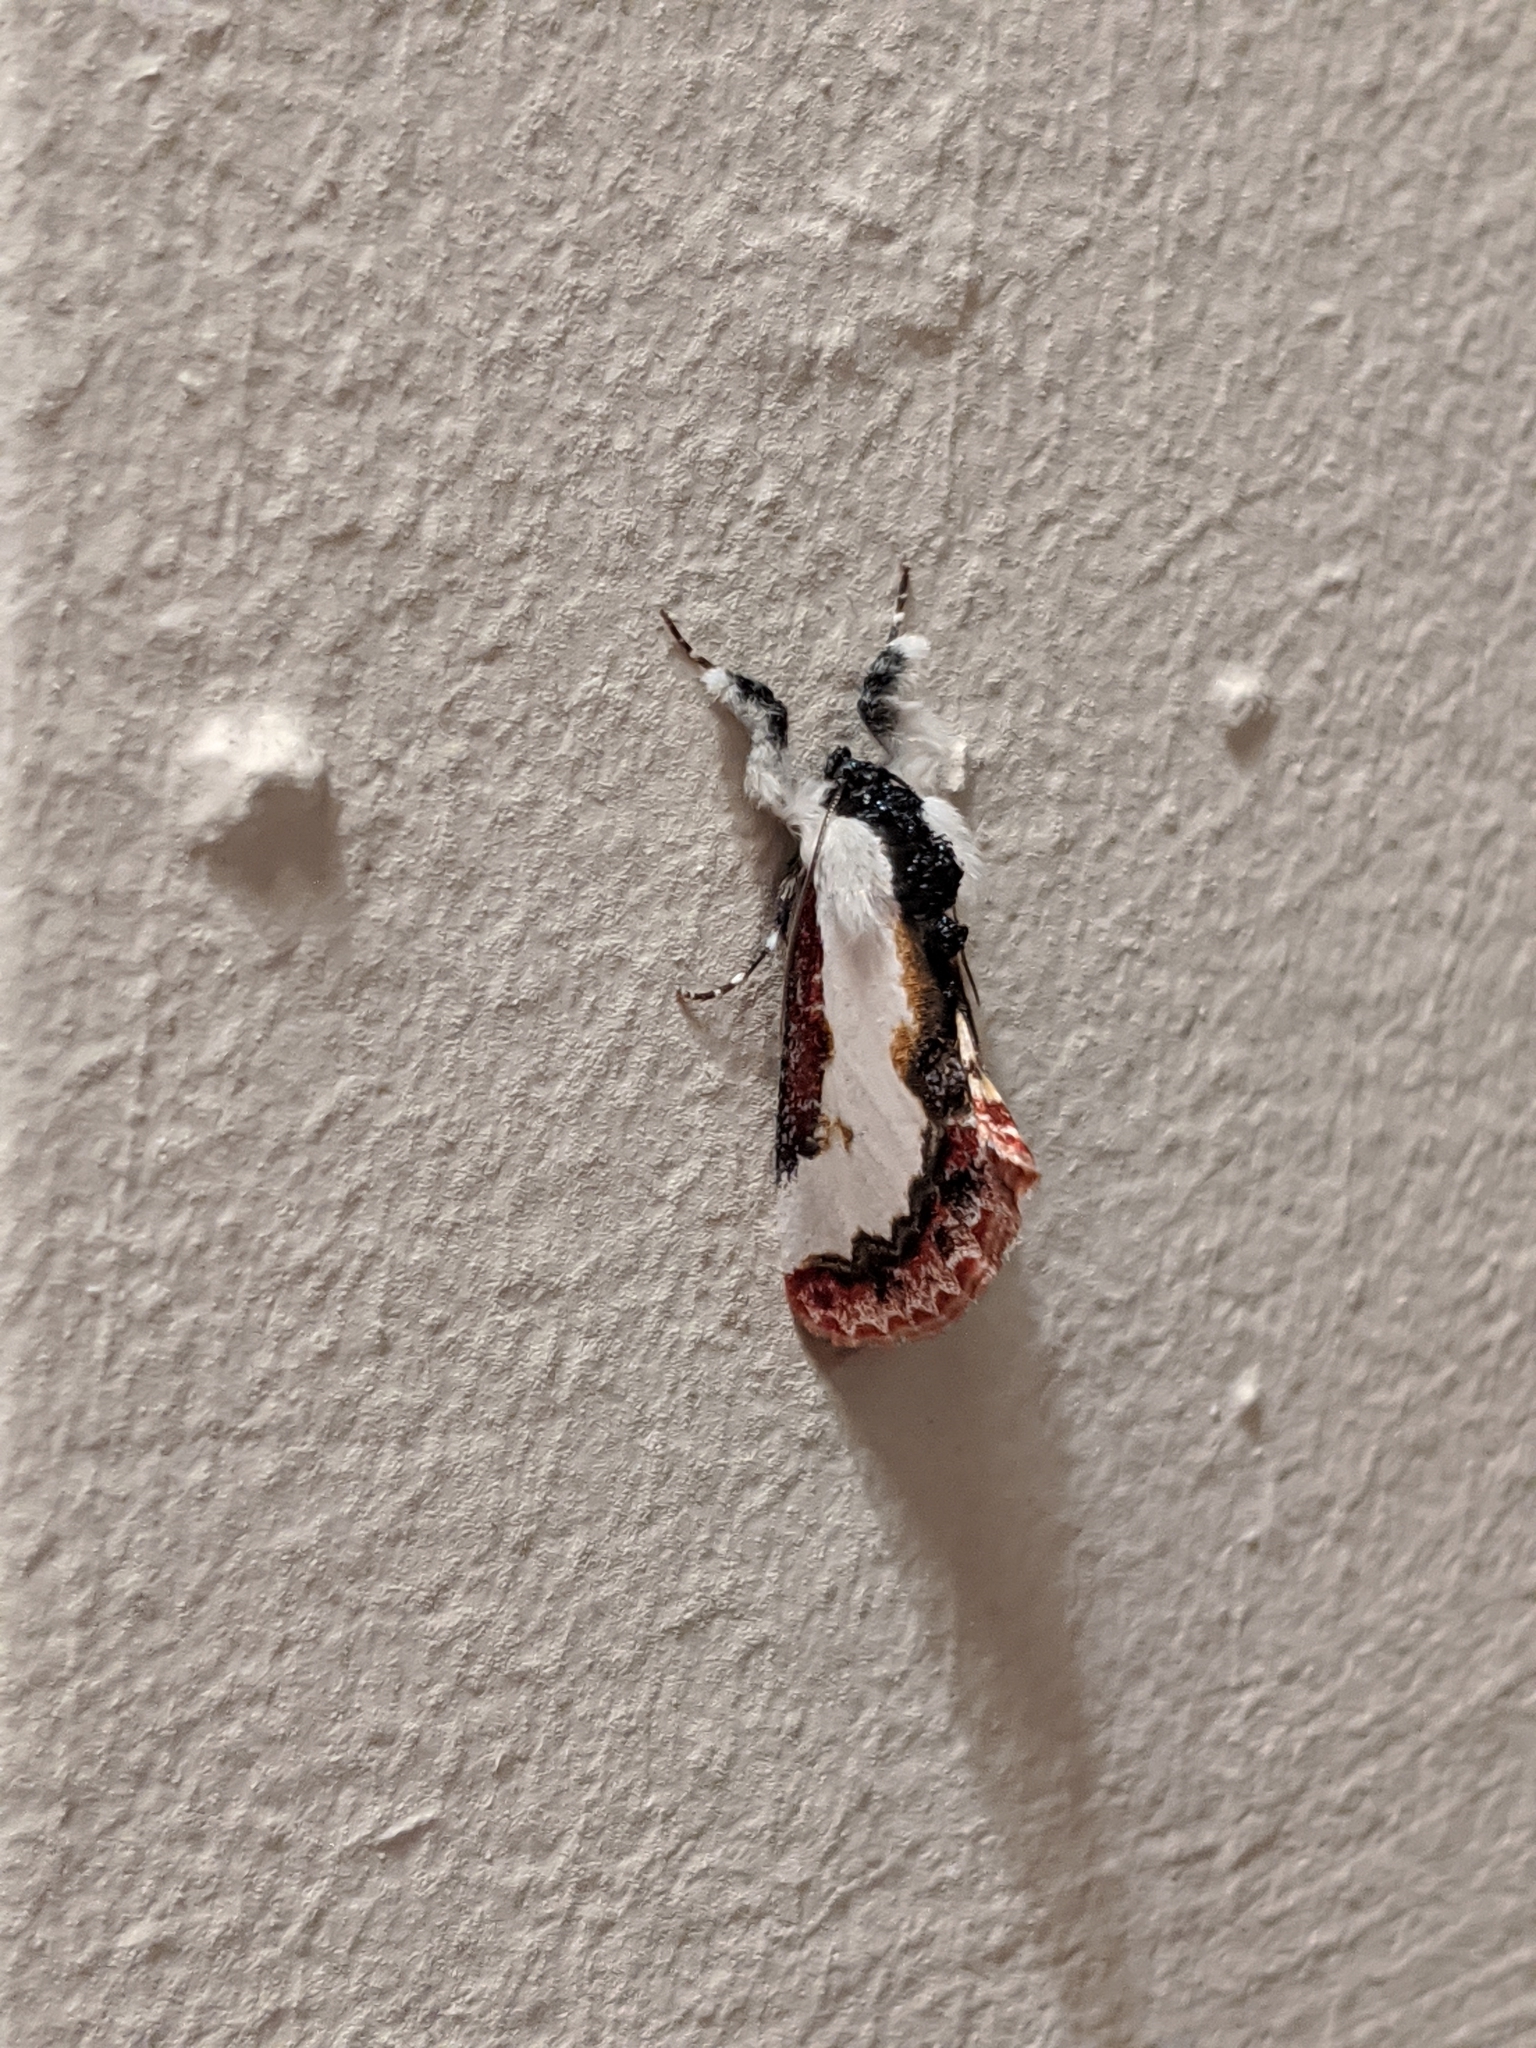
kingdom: Animalia
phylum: Arthropoda
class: Insecta
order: Lepidoptera
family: Noctuidae
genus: Eudryas
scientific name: Eudryas unio
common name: Pearly wood-nymph
